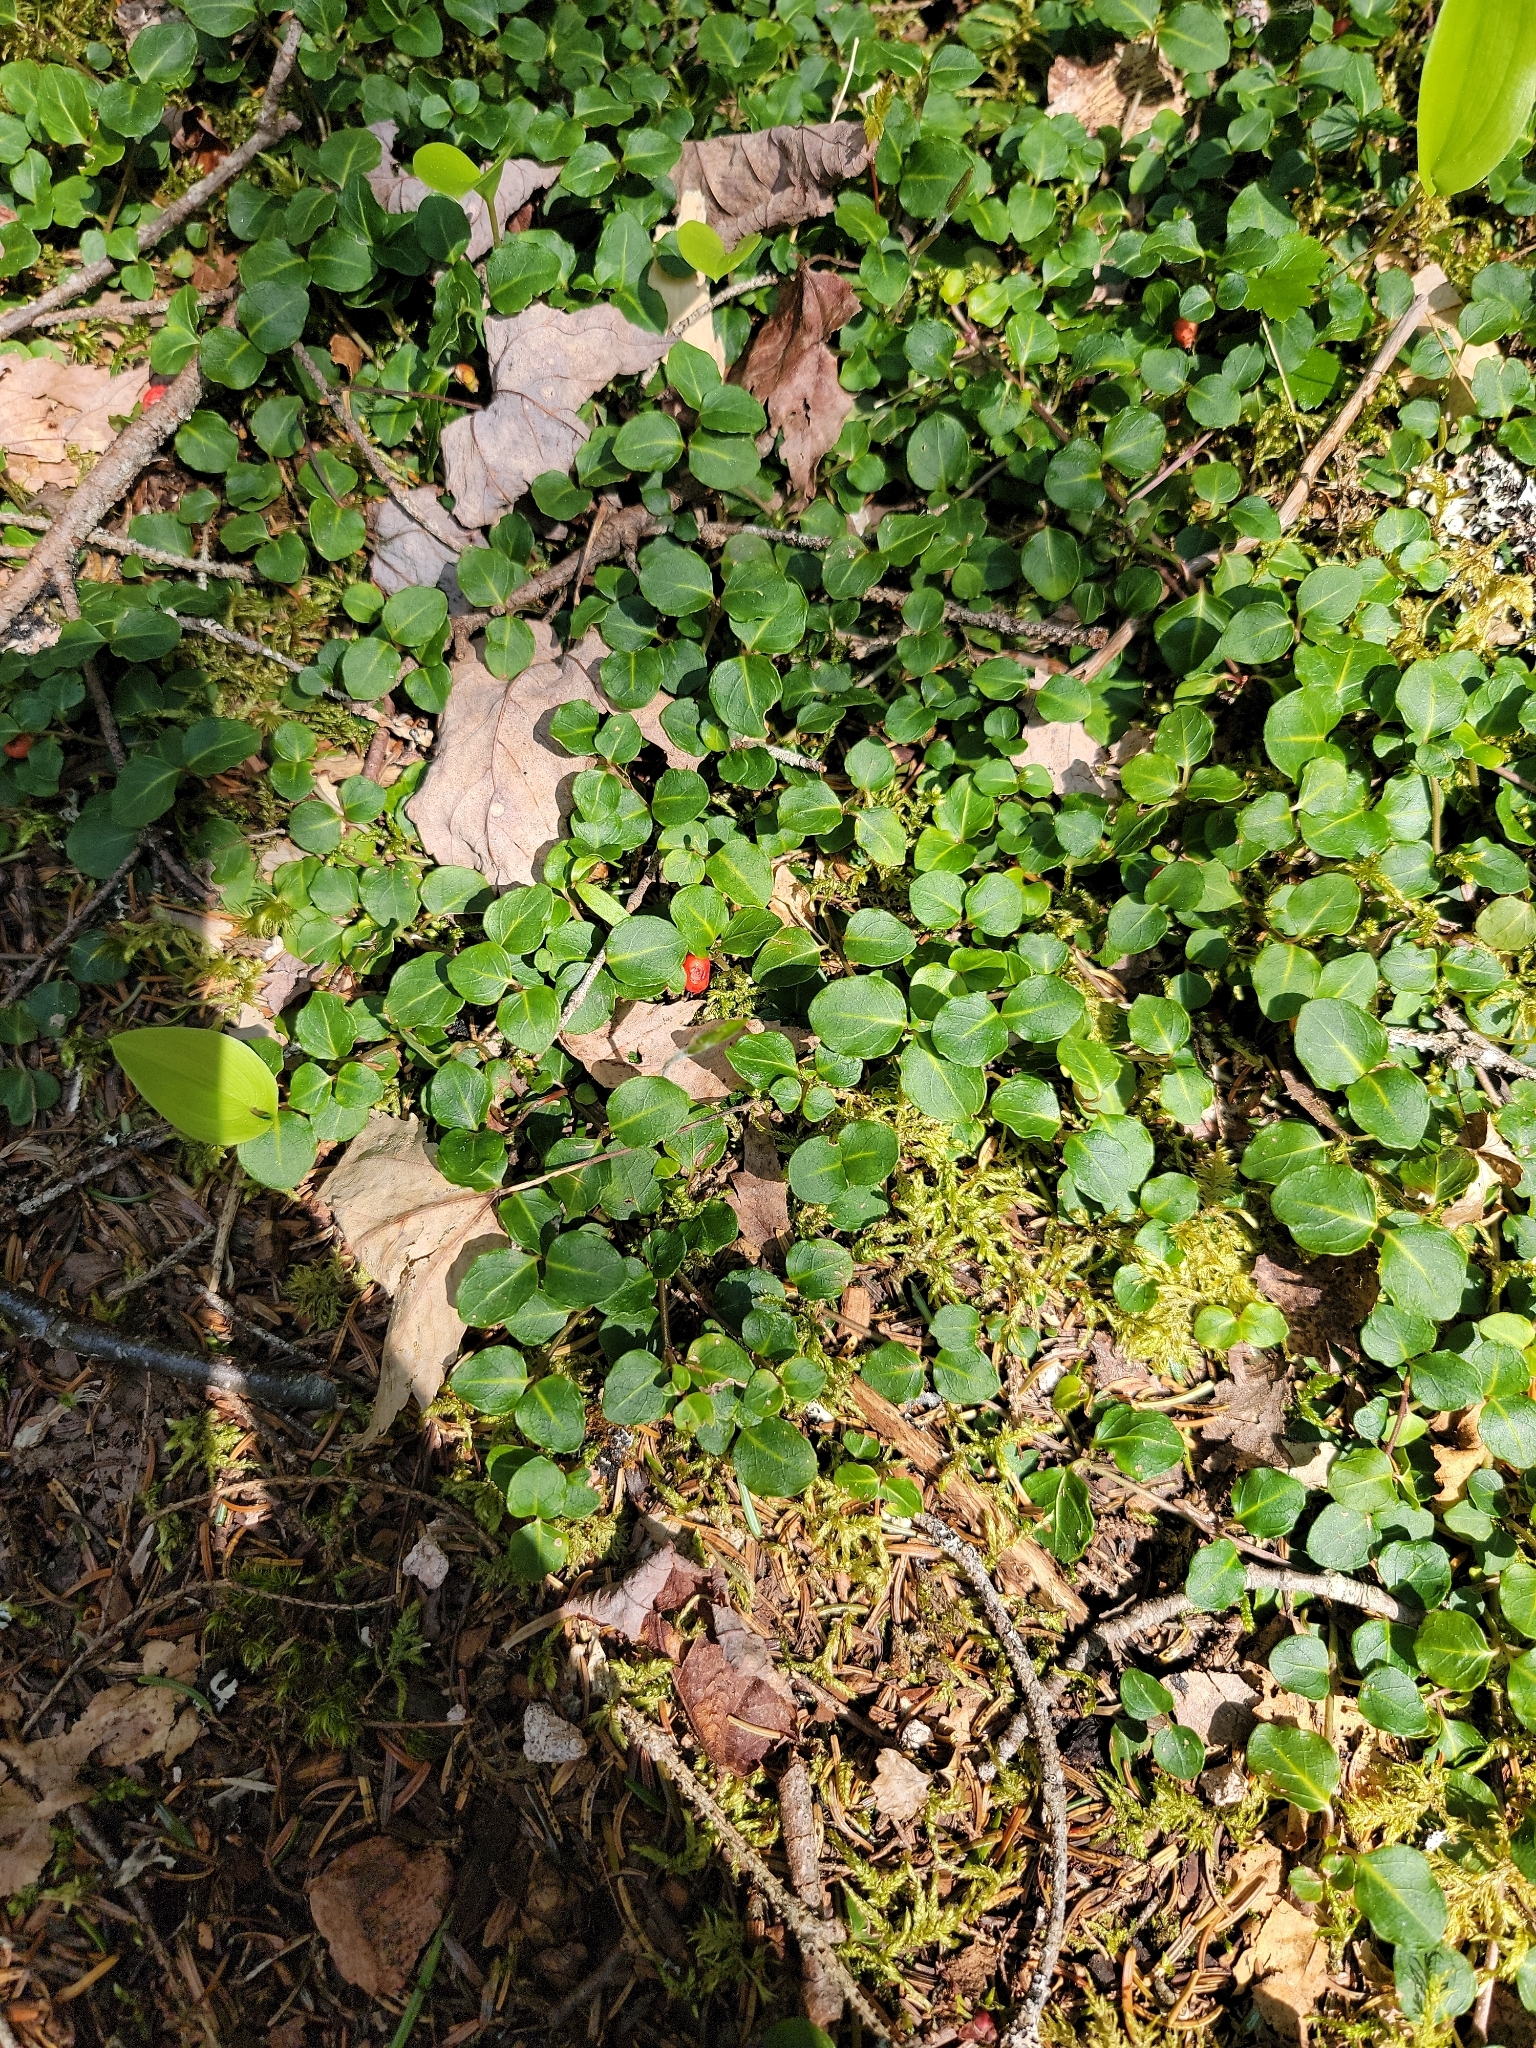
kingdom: Plantae
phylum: Tracheophyta
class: Magnoliopsida
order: Gentianales
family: Rubiaceae
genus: Mitchella
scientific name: Mitchella repens
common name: Partridge-berry
